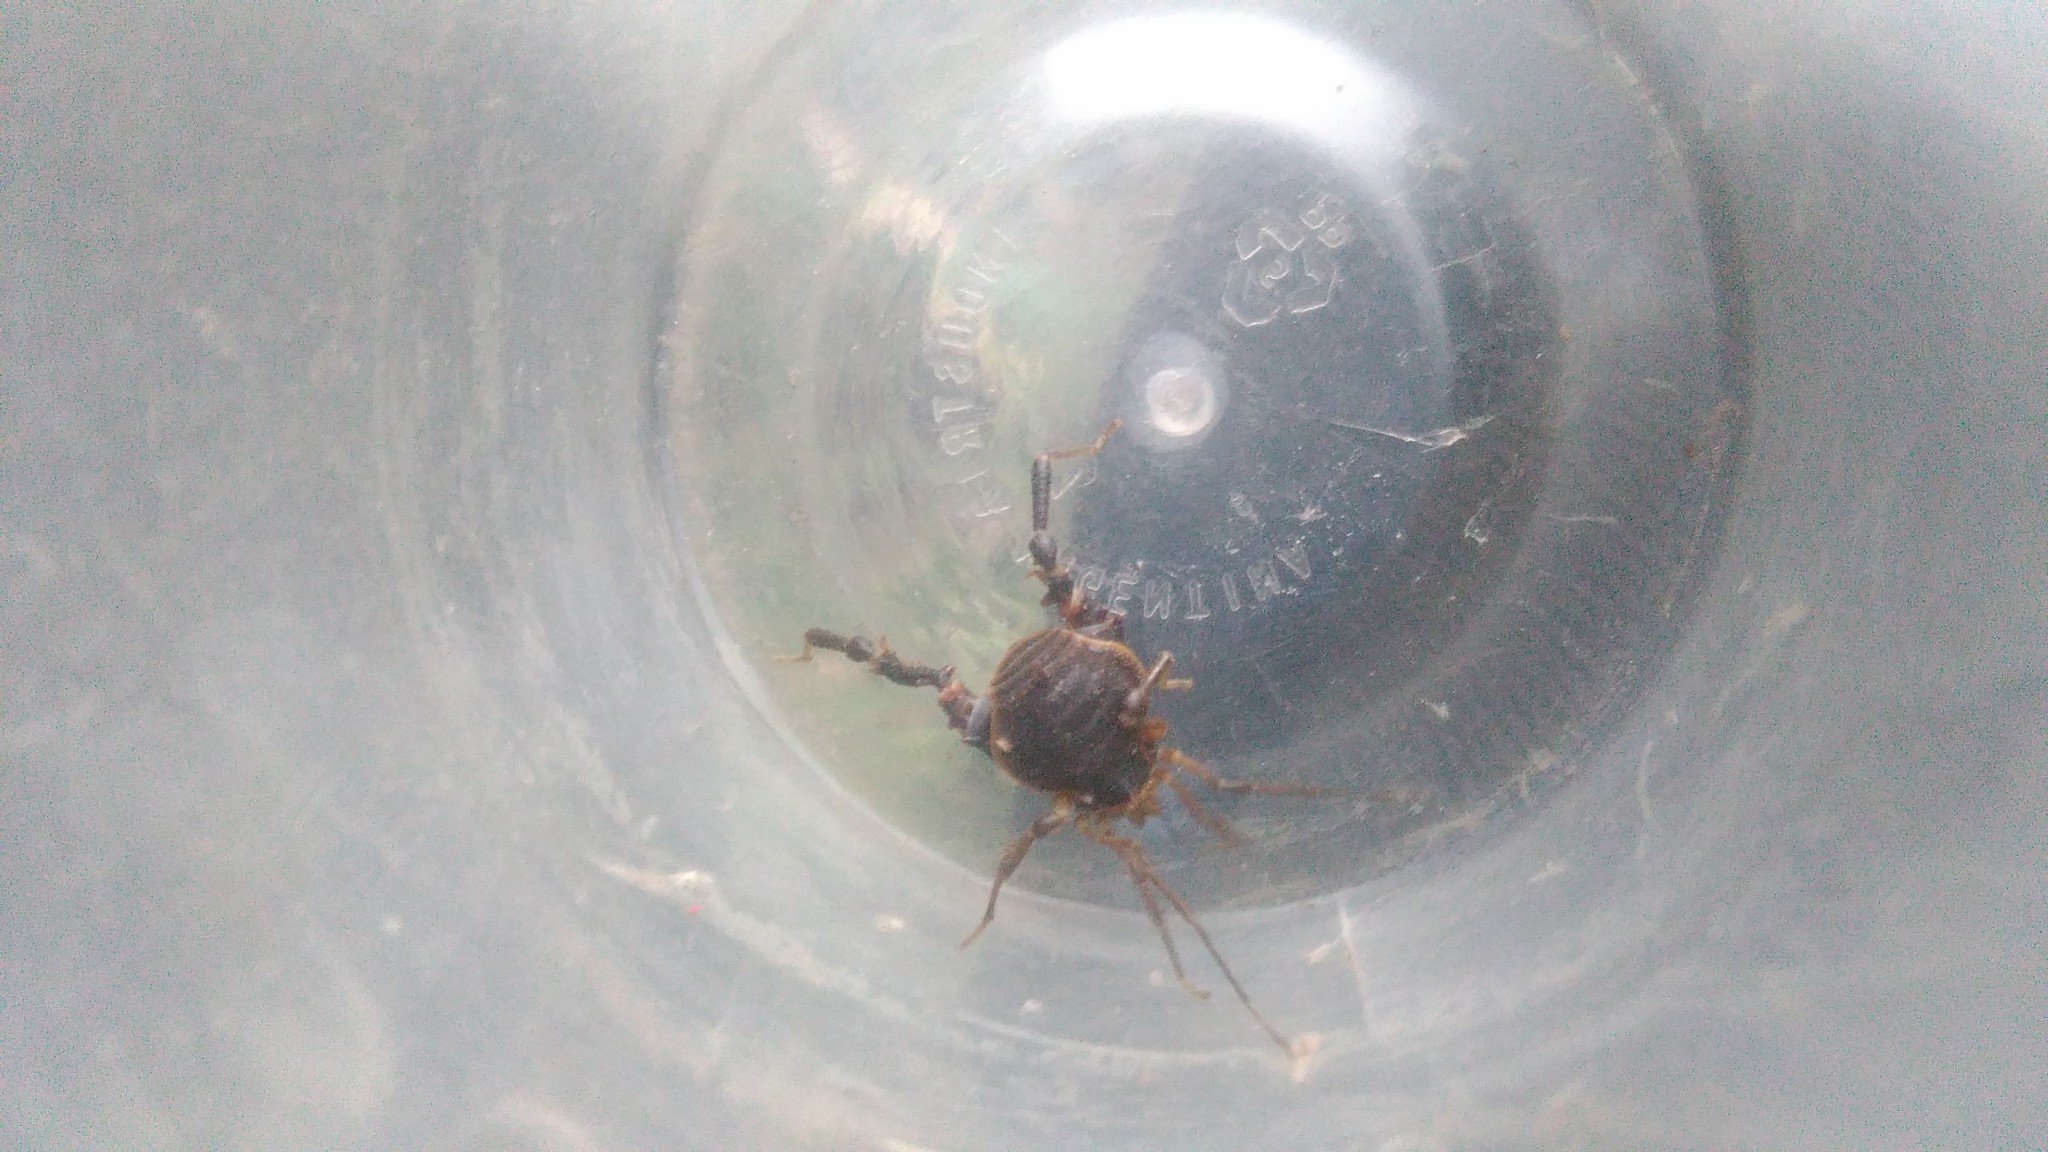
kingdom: Animalia
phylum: Arthropoda
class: Arachnida
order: Opiliones
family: Gonyleptidae
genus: Acanthopachylus
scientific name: Acanthopachylus robustus
